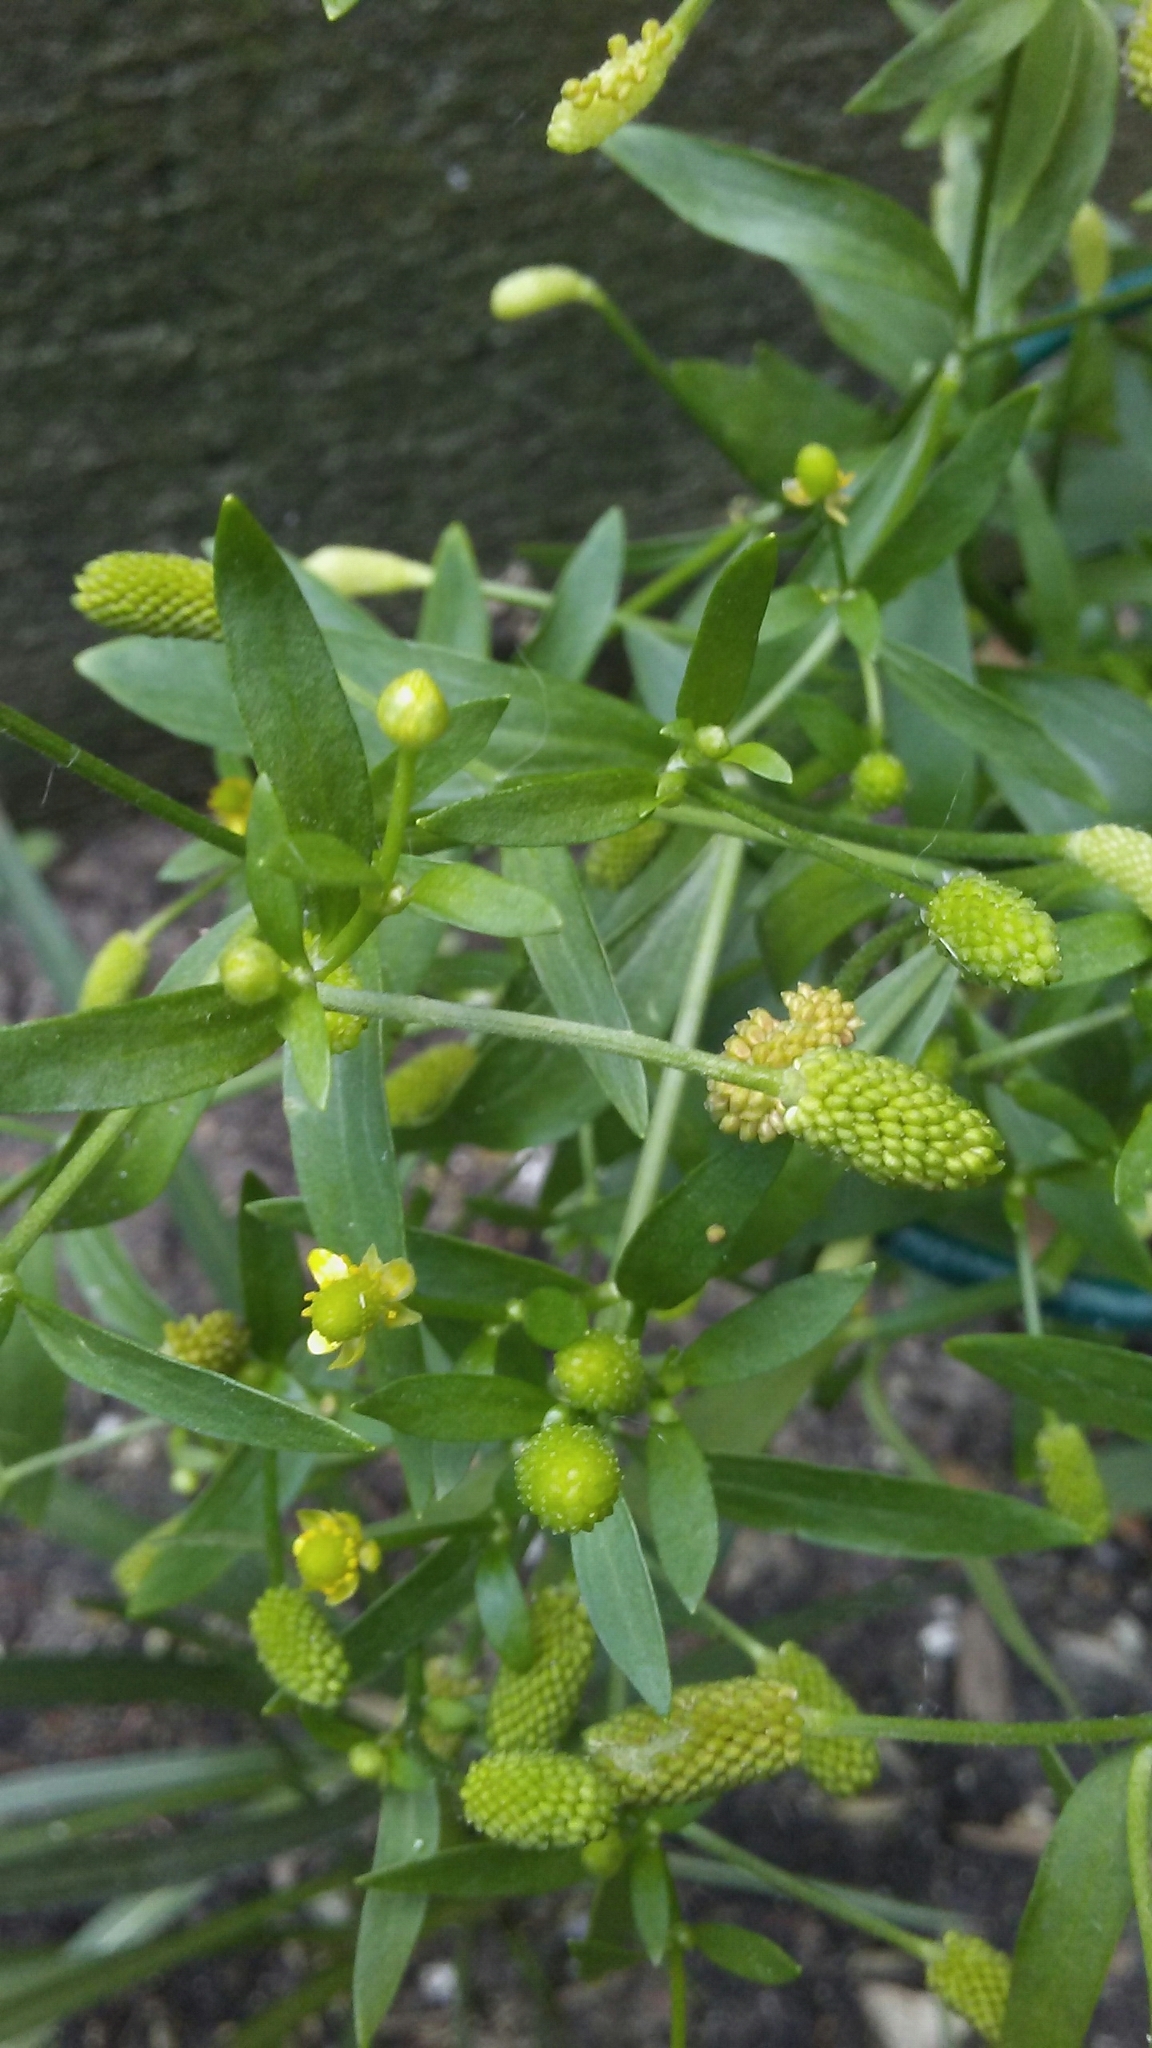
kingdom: Plantae
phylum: Tracheophyta
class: Magnoliopsida
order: Ranunculales
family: Ranunculaceae
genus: Ranunculus
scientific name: Ranunculus sceleratus
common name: Celery-leaved buttercup
